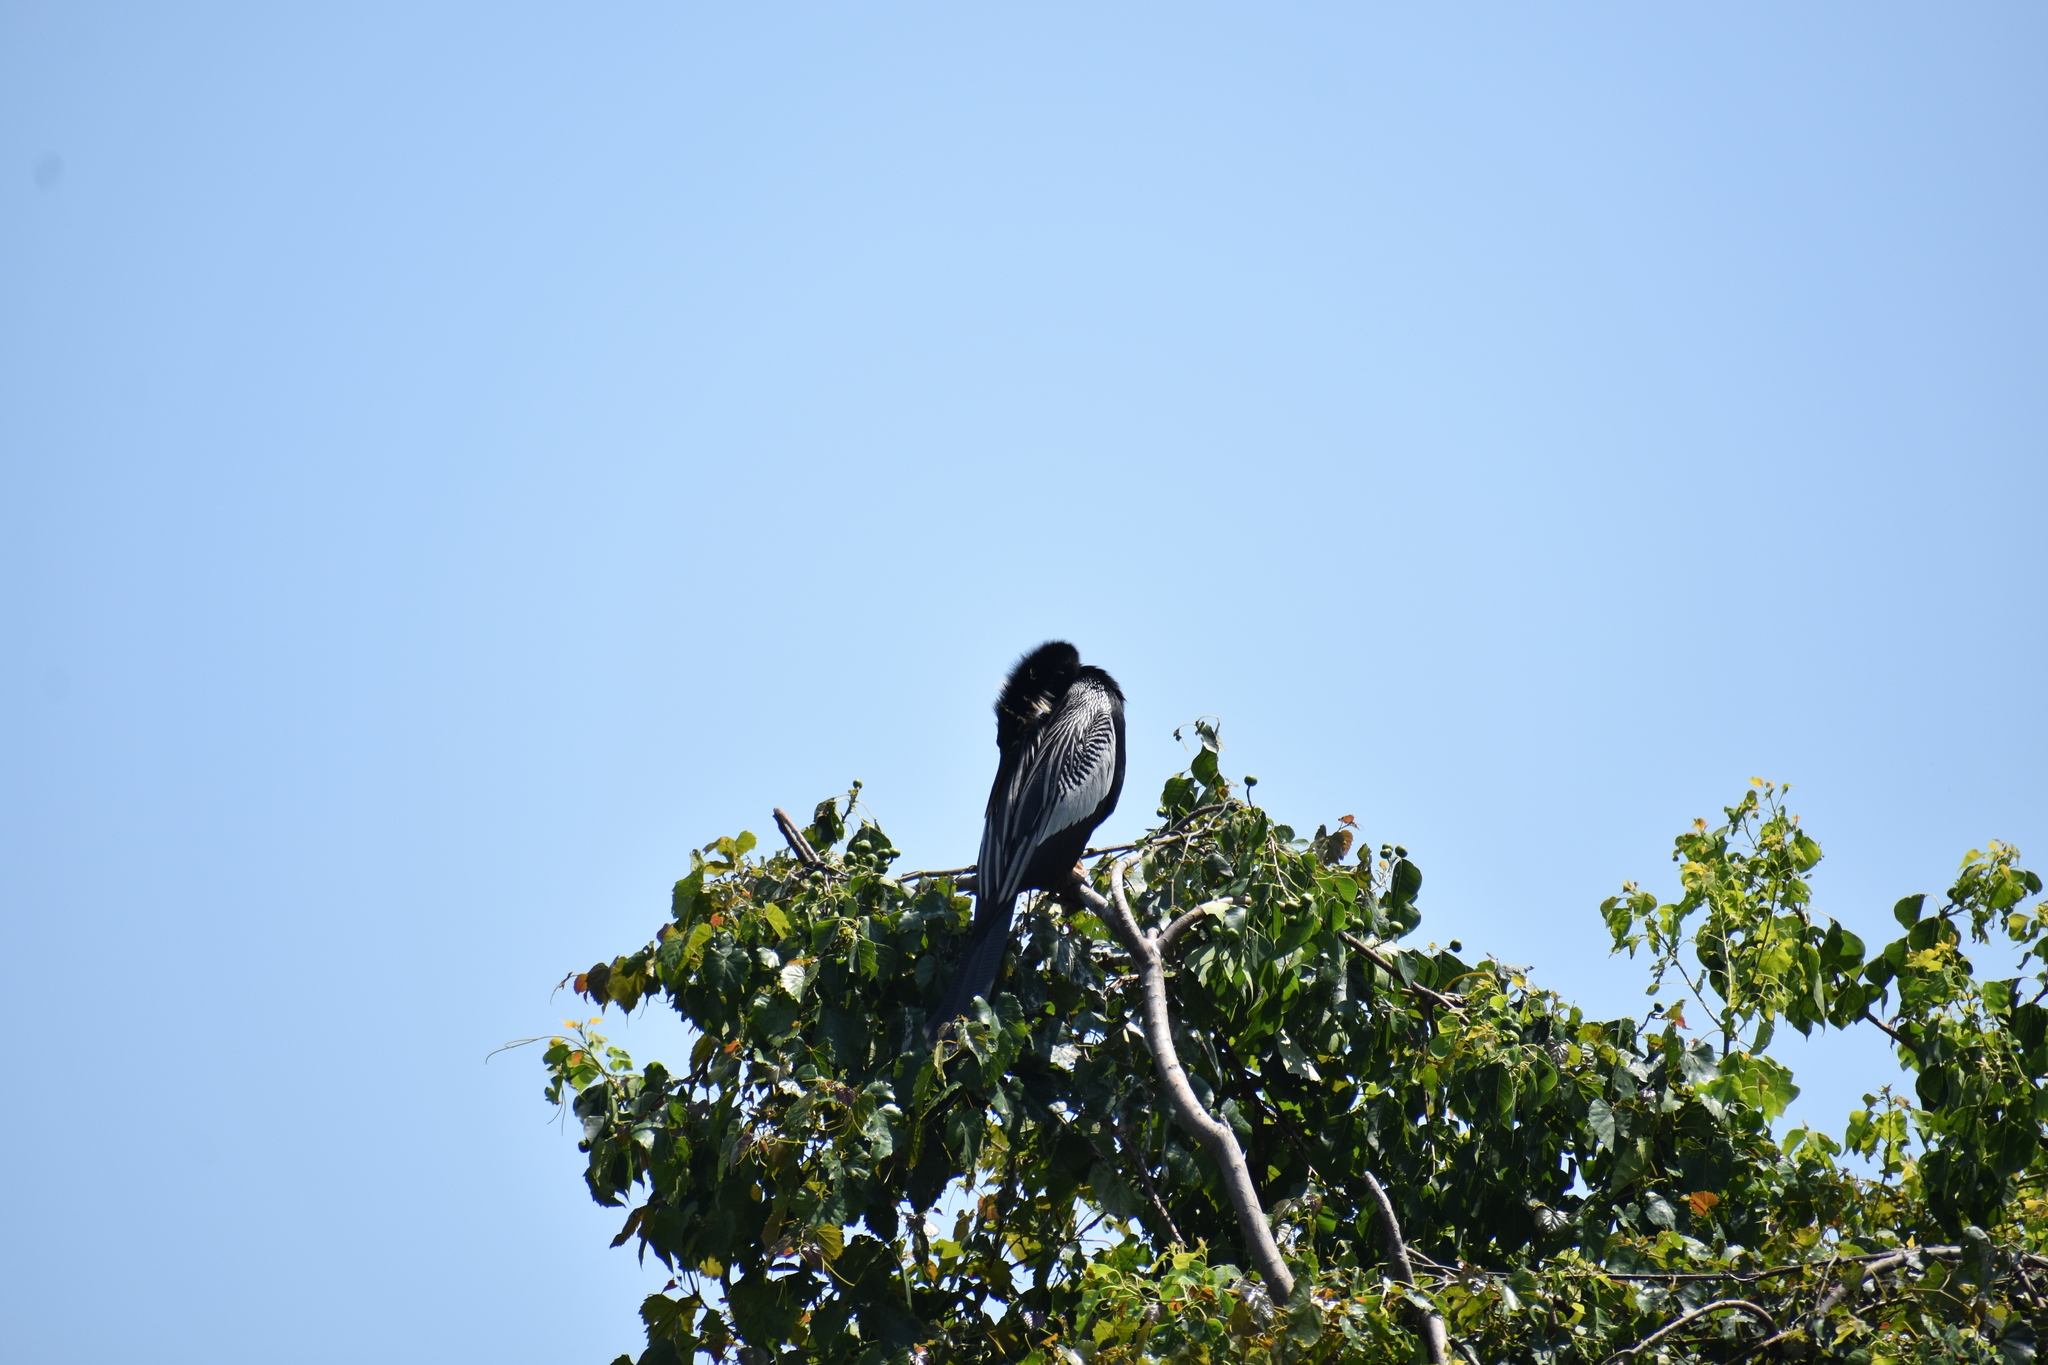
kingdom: Animalia
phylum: Chordata
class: Aves
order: Suliformes
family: Anhingidae
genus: Anhinga
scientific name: Anhinga anhinga
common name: Anhinga
